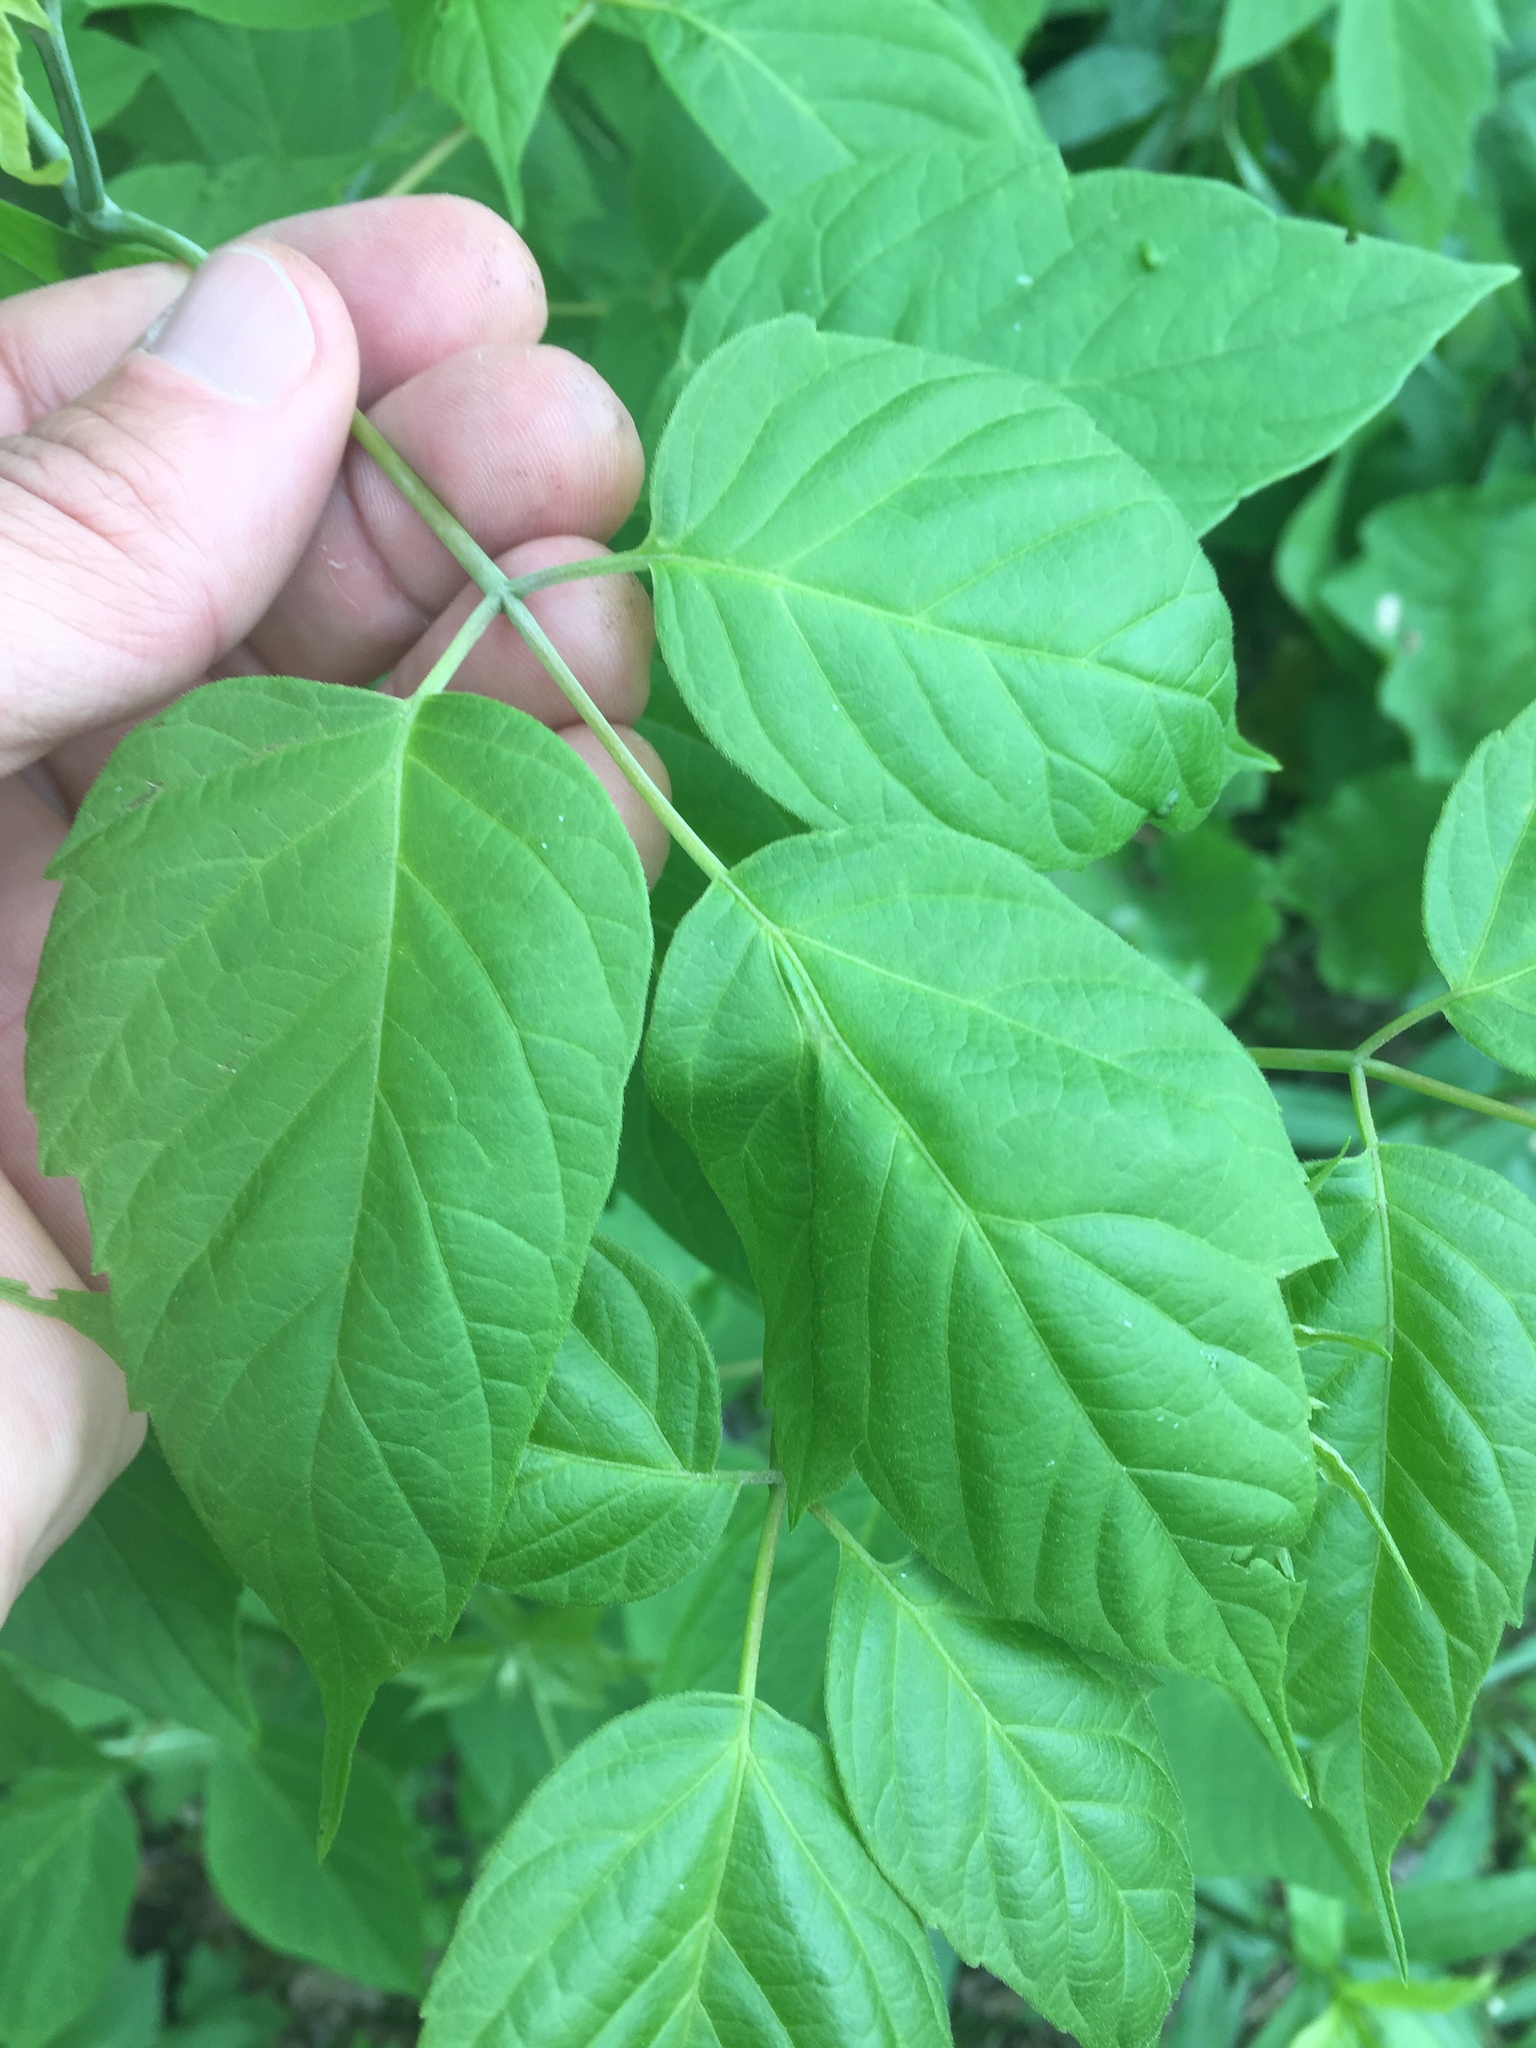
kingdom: Plantae
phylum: Tracheophyta
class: Magnoliopsida
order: Sapindales
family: Sapindaceae
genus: Acer
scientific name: Acer negundo
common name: Ashleaf maple
